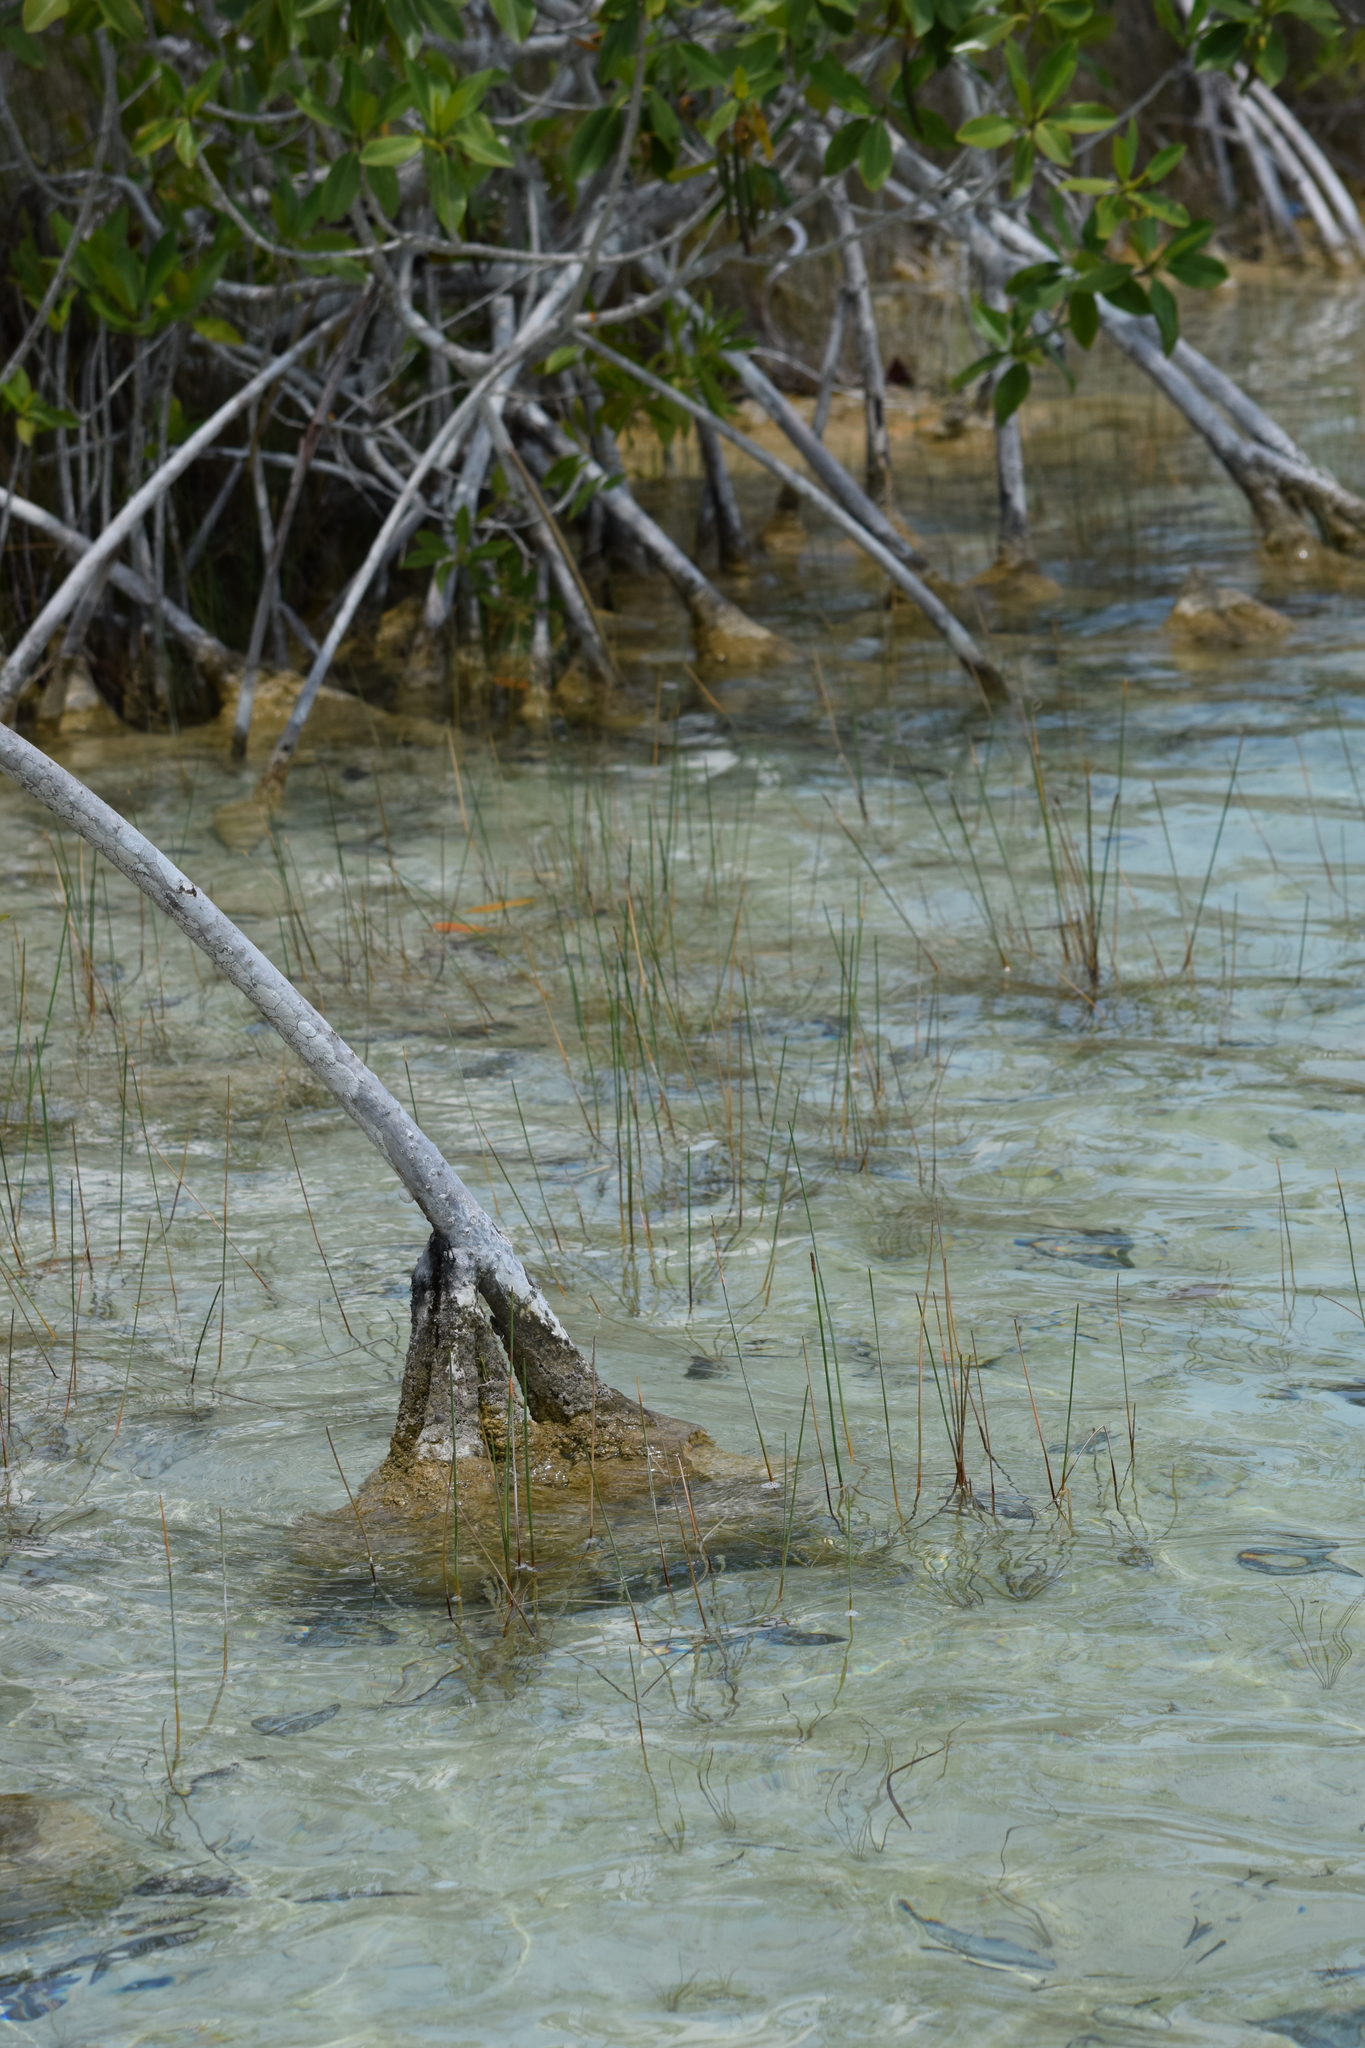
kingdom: Plantae
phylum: Tracheophyta
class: Magnoliopsida
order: Malpighiales
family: Rhizophoraceae
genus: Rhizophora
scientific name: Rhizophora mangle
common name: Red mangrove
